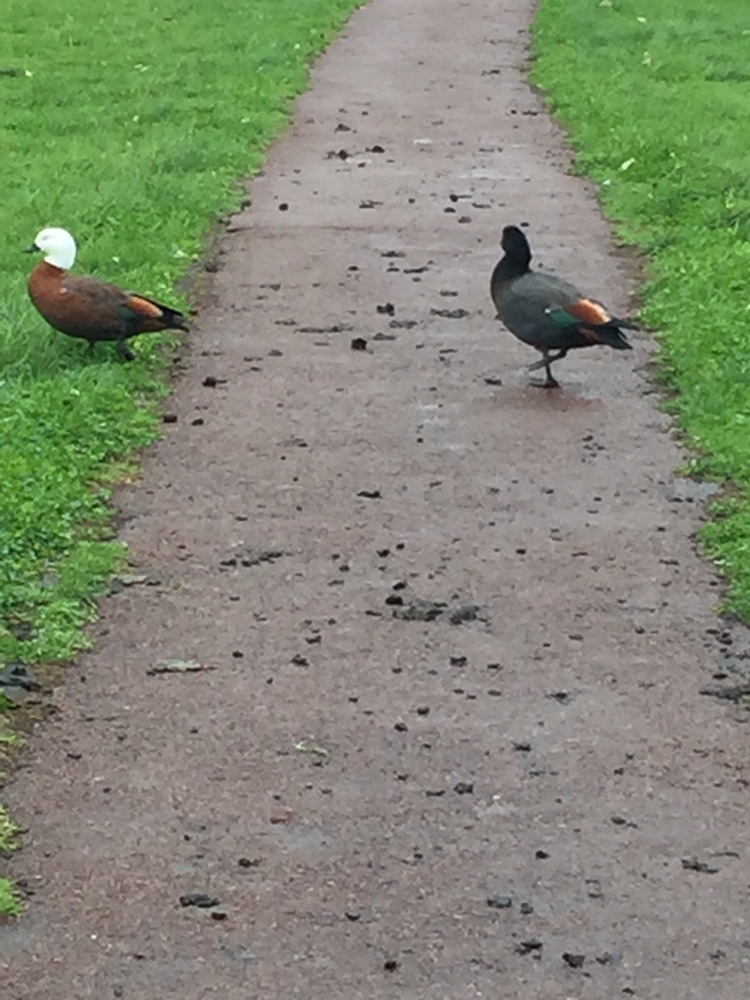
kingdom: Animalia
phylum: Chordata
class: Aves
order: Anseriformes
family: Anatidae
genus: Tadorna
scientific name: Tadorna variegata
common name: Paradise shelduck
